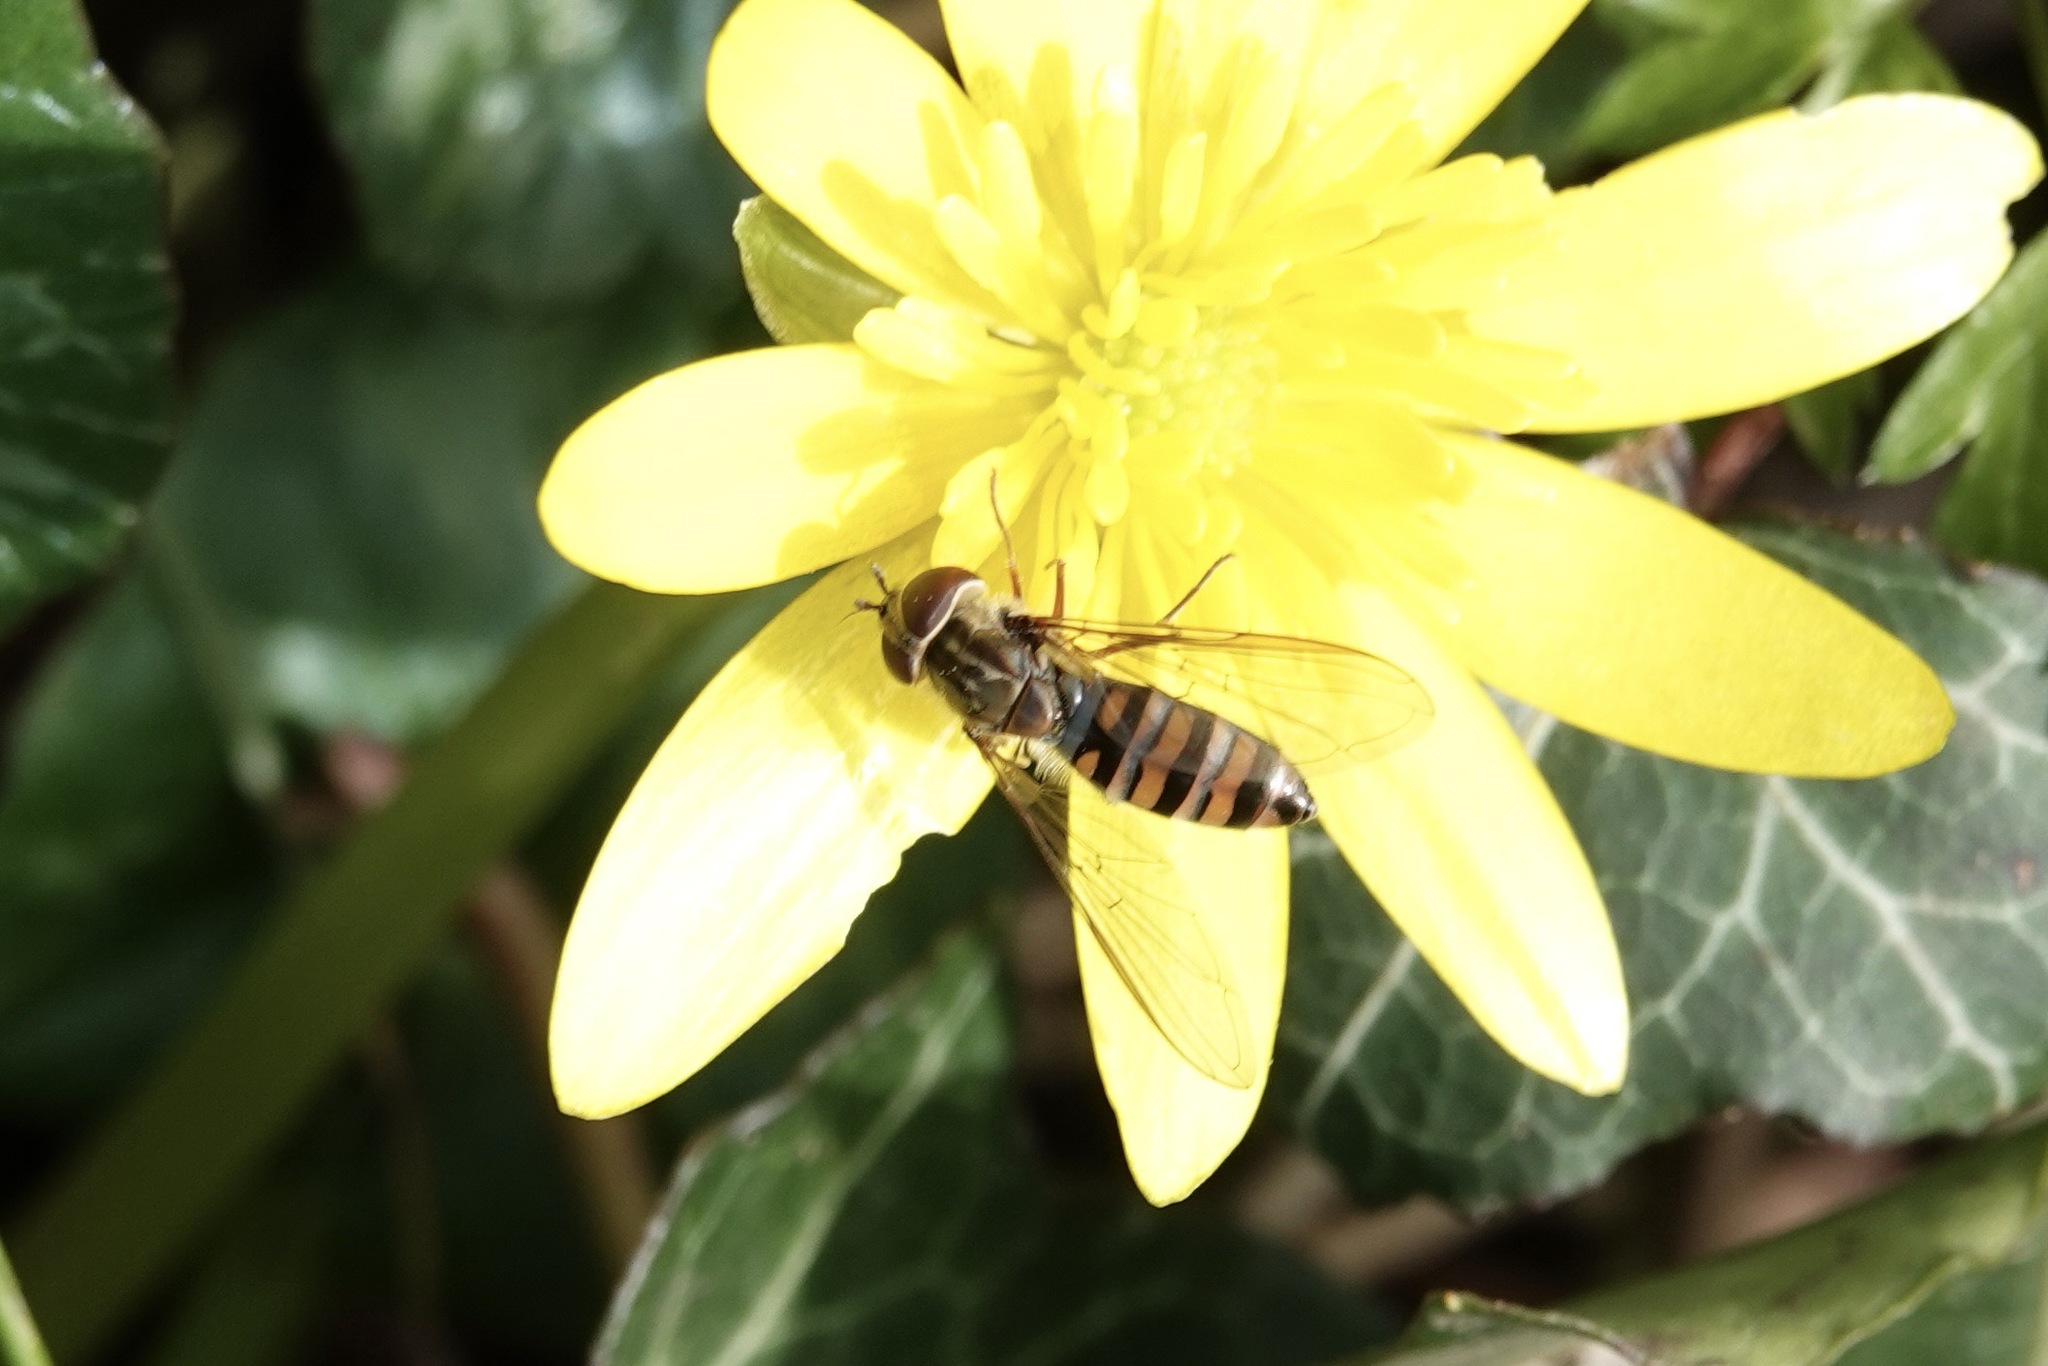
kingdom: Animalia
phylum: Arthropoda
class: Insecta
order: Diptera
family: Syrphidae
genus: Episyrphus
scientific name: Episyrphus balteatus
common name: Marmalade hoverfly
